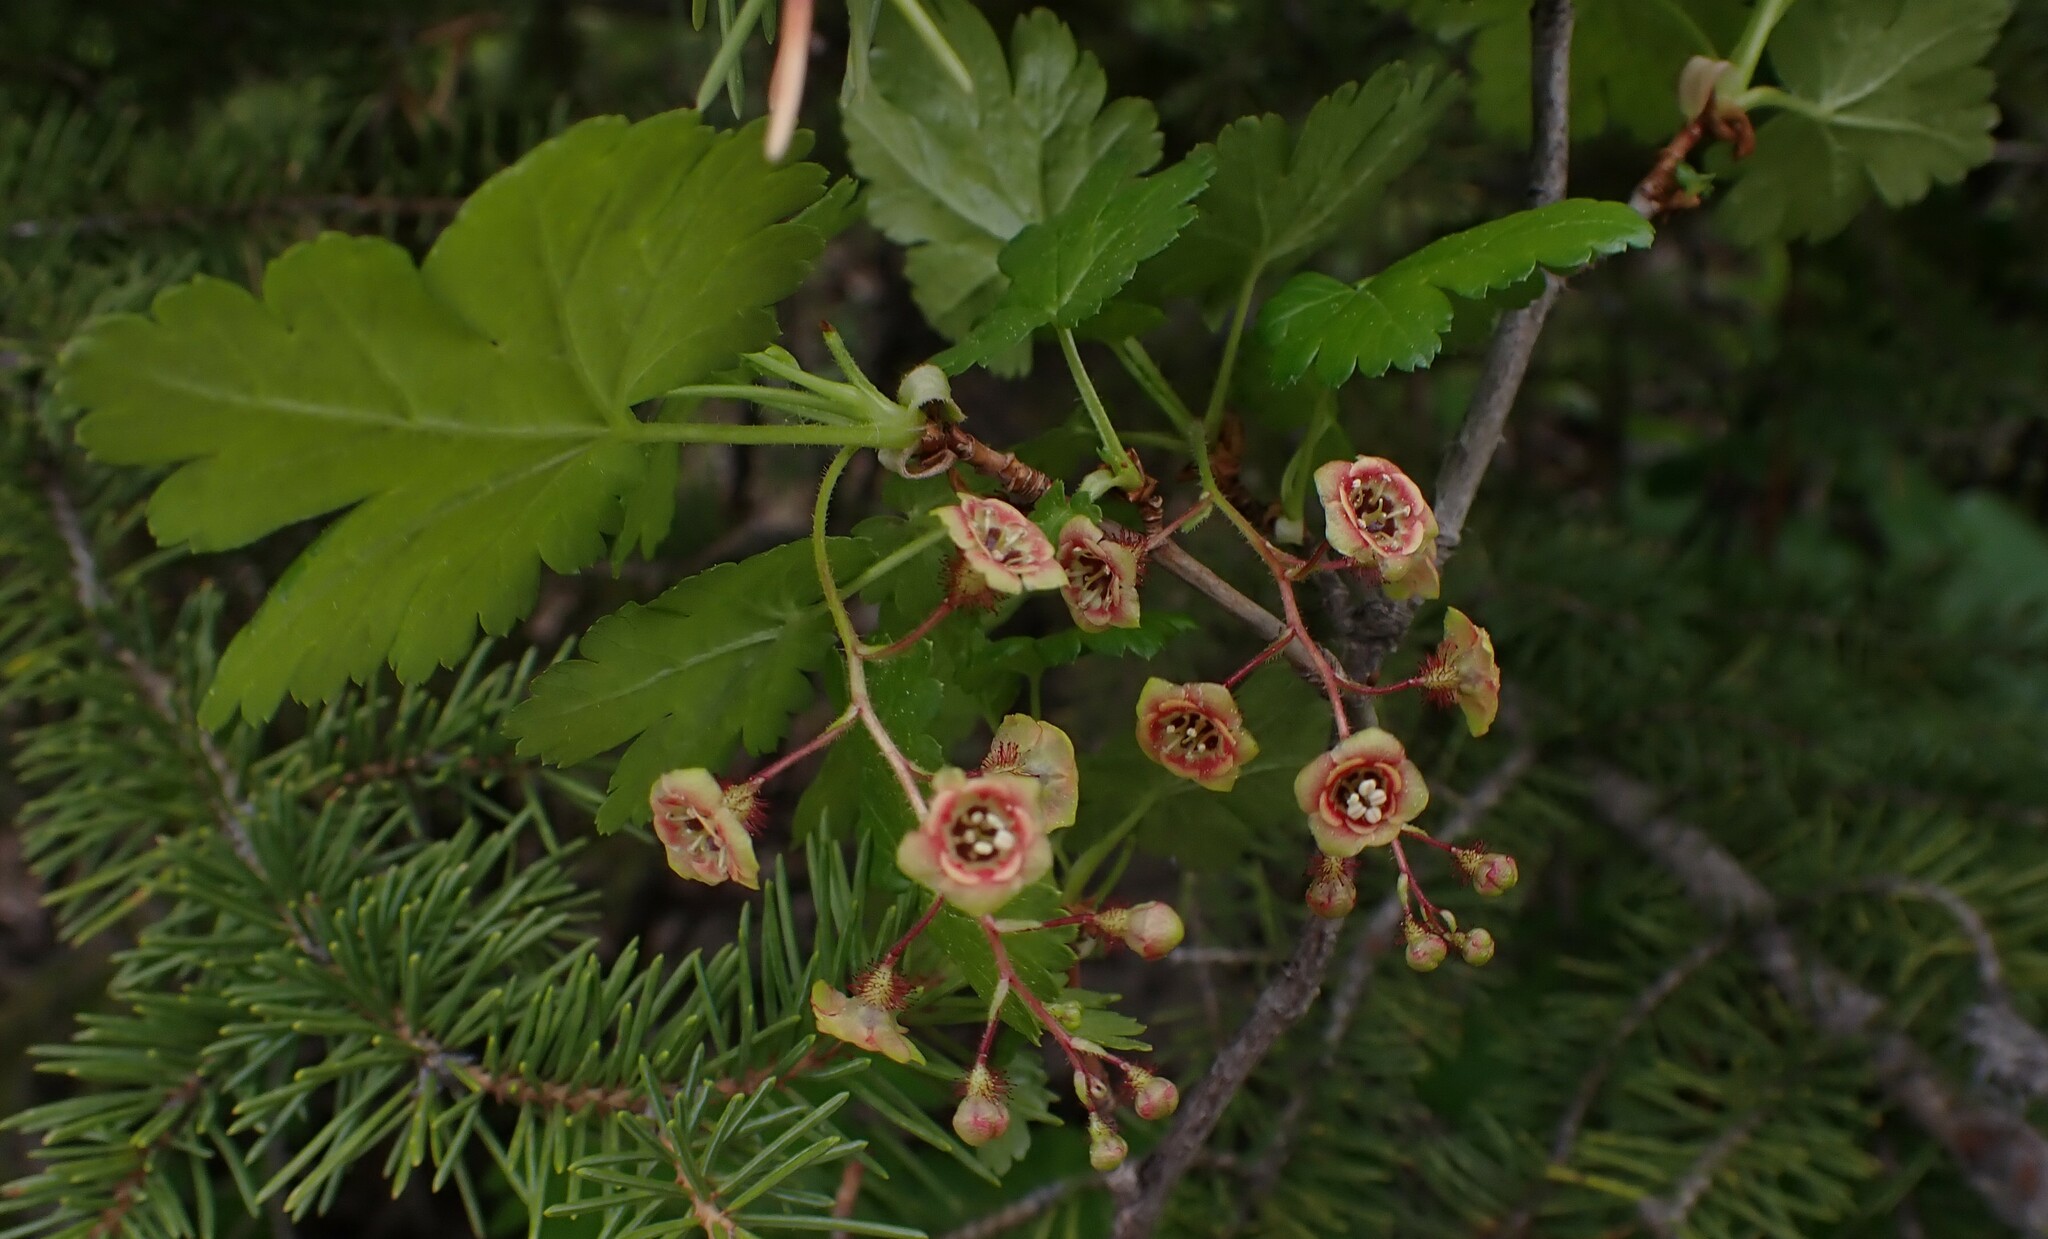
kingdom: Plantae
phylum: Tracheophyta
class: Magnoliopsida
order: Saxifragales
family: Grossulariaceae
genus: Ribes
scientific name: Ribes lacustre
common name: Black gooseberry
